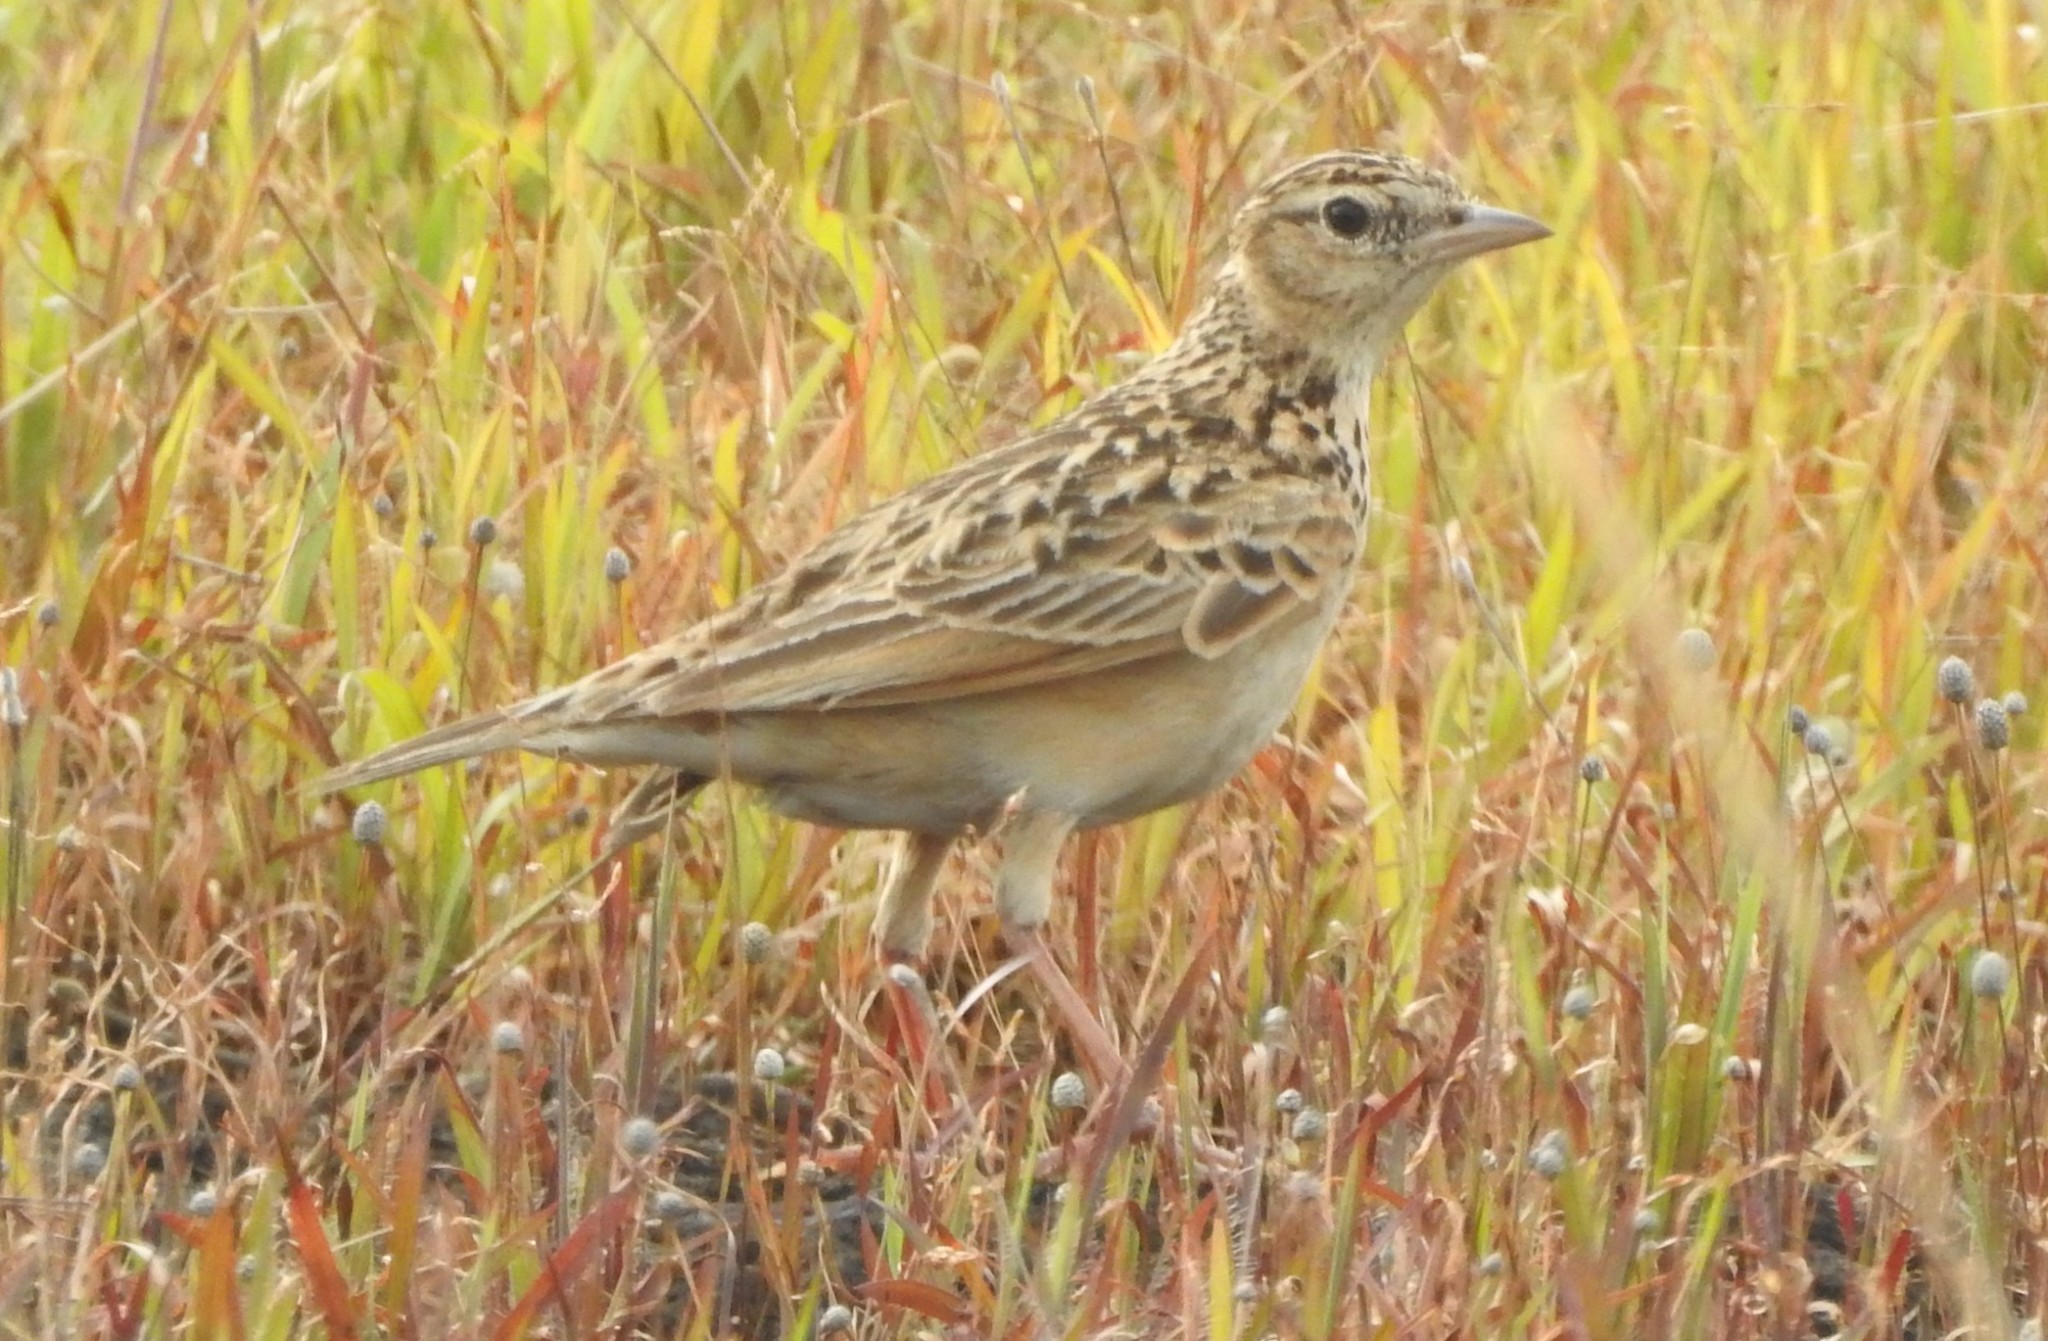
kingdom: Animalia
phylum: Chordata
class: Aves
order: Passeriformes
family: Alaudidae
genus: Alauda
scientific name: Alauda gulgula
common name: Oriental skylark
